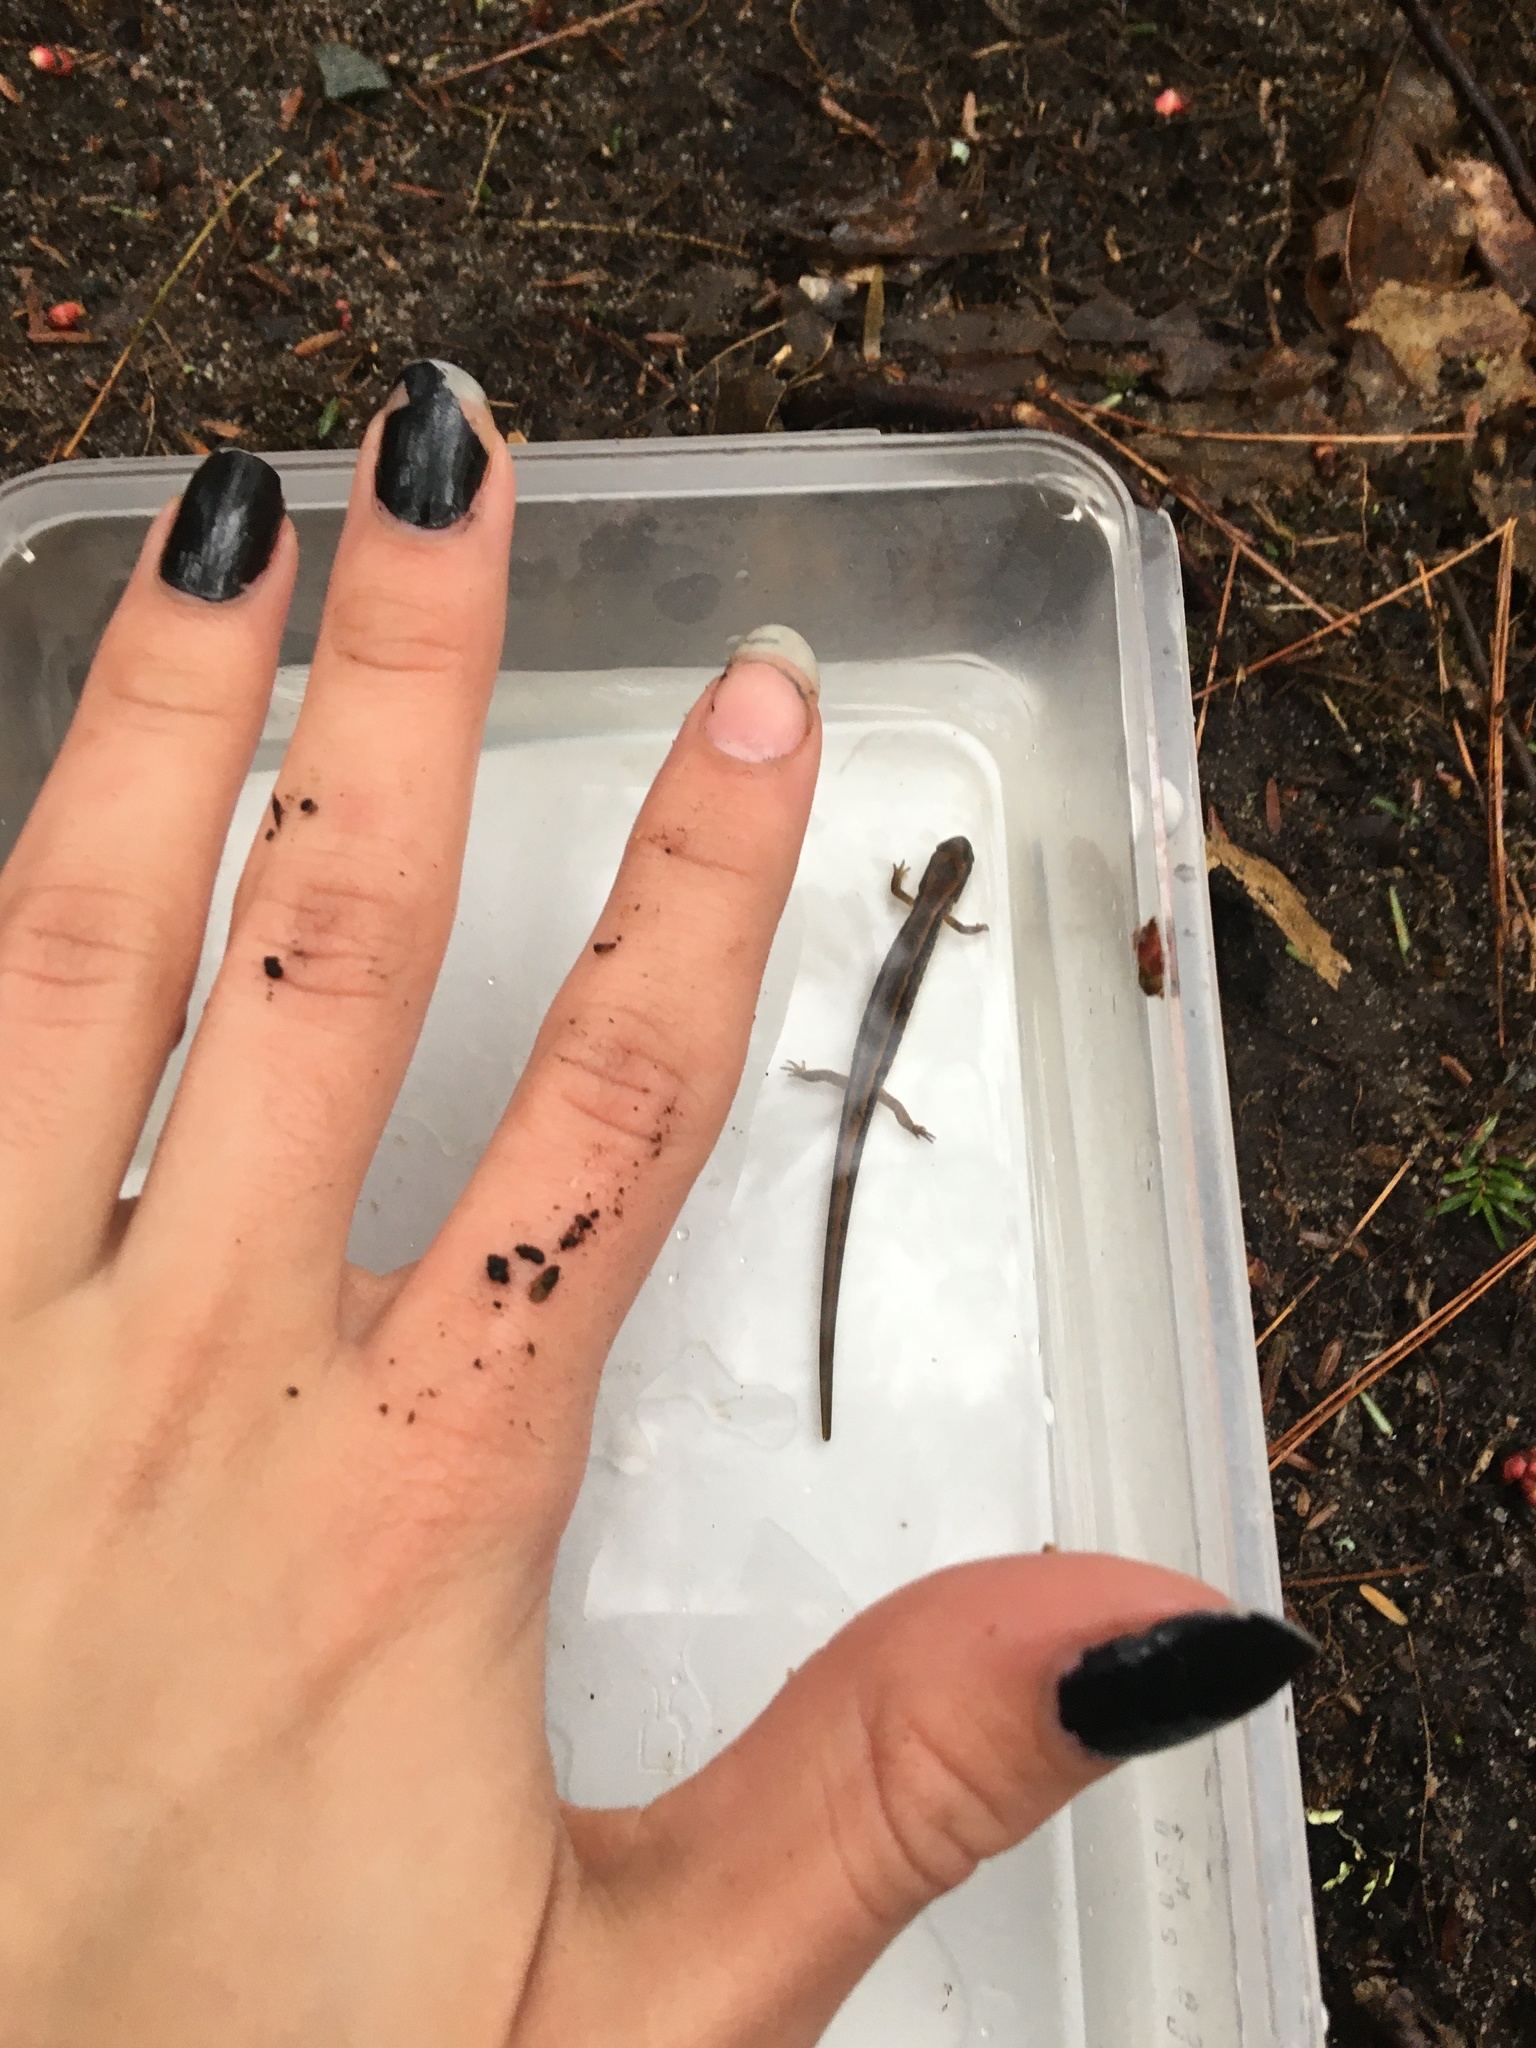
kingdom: Animalia
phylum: Chordata
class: Amphibia
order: Caudata
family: Plethodontidae
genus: Eurycea
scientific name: Eurycea bislineata
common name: Northern two-lined salamander
